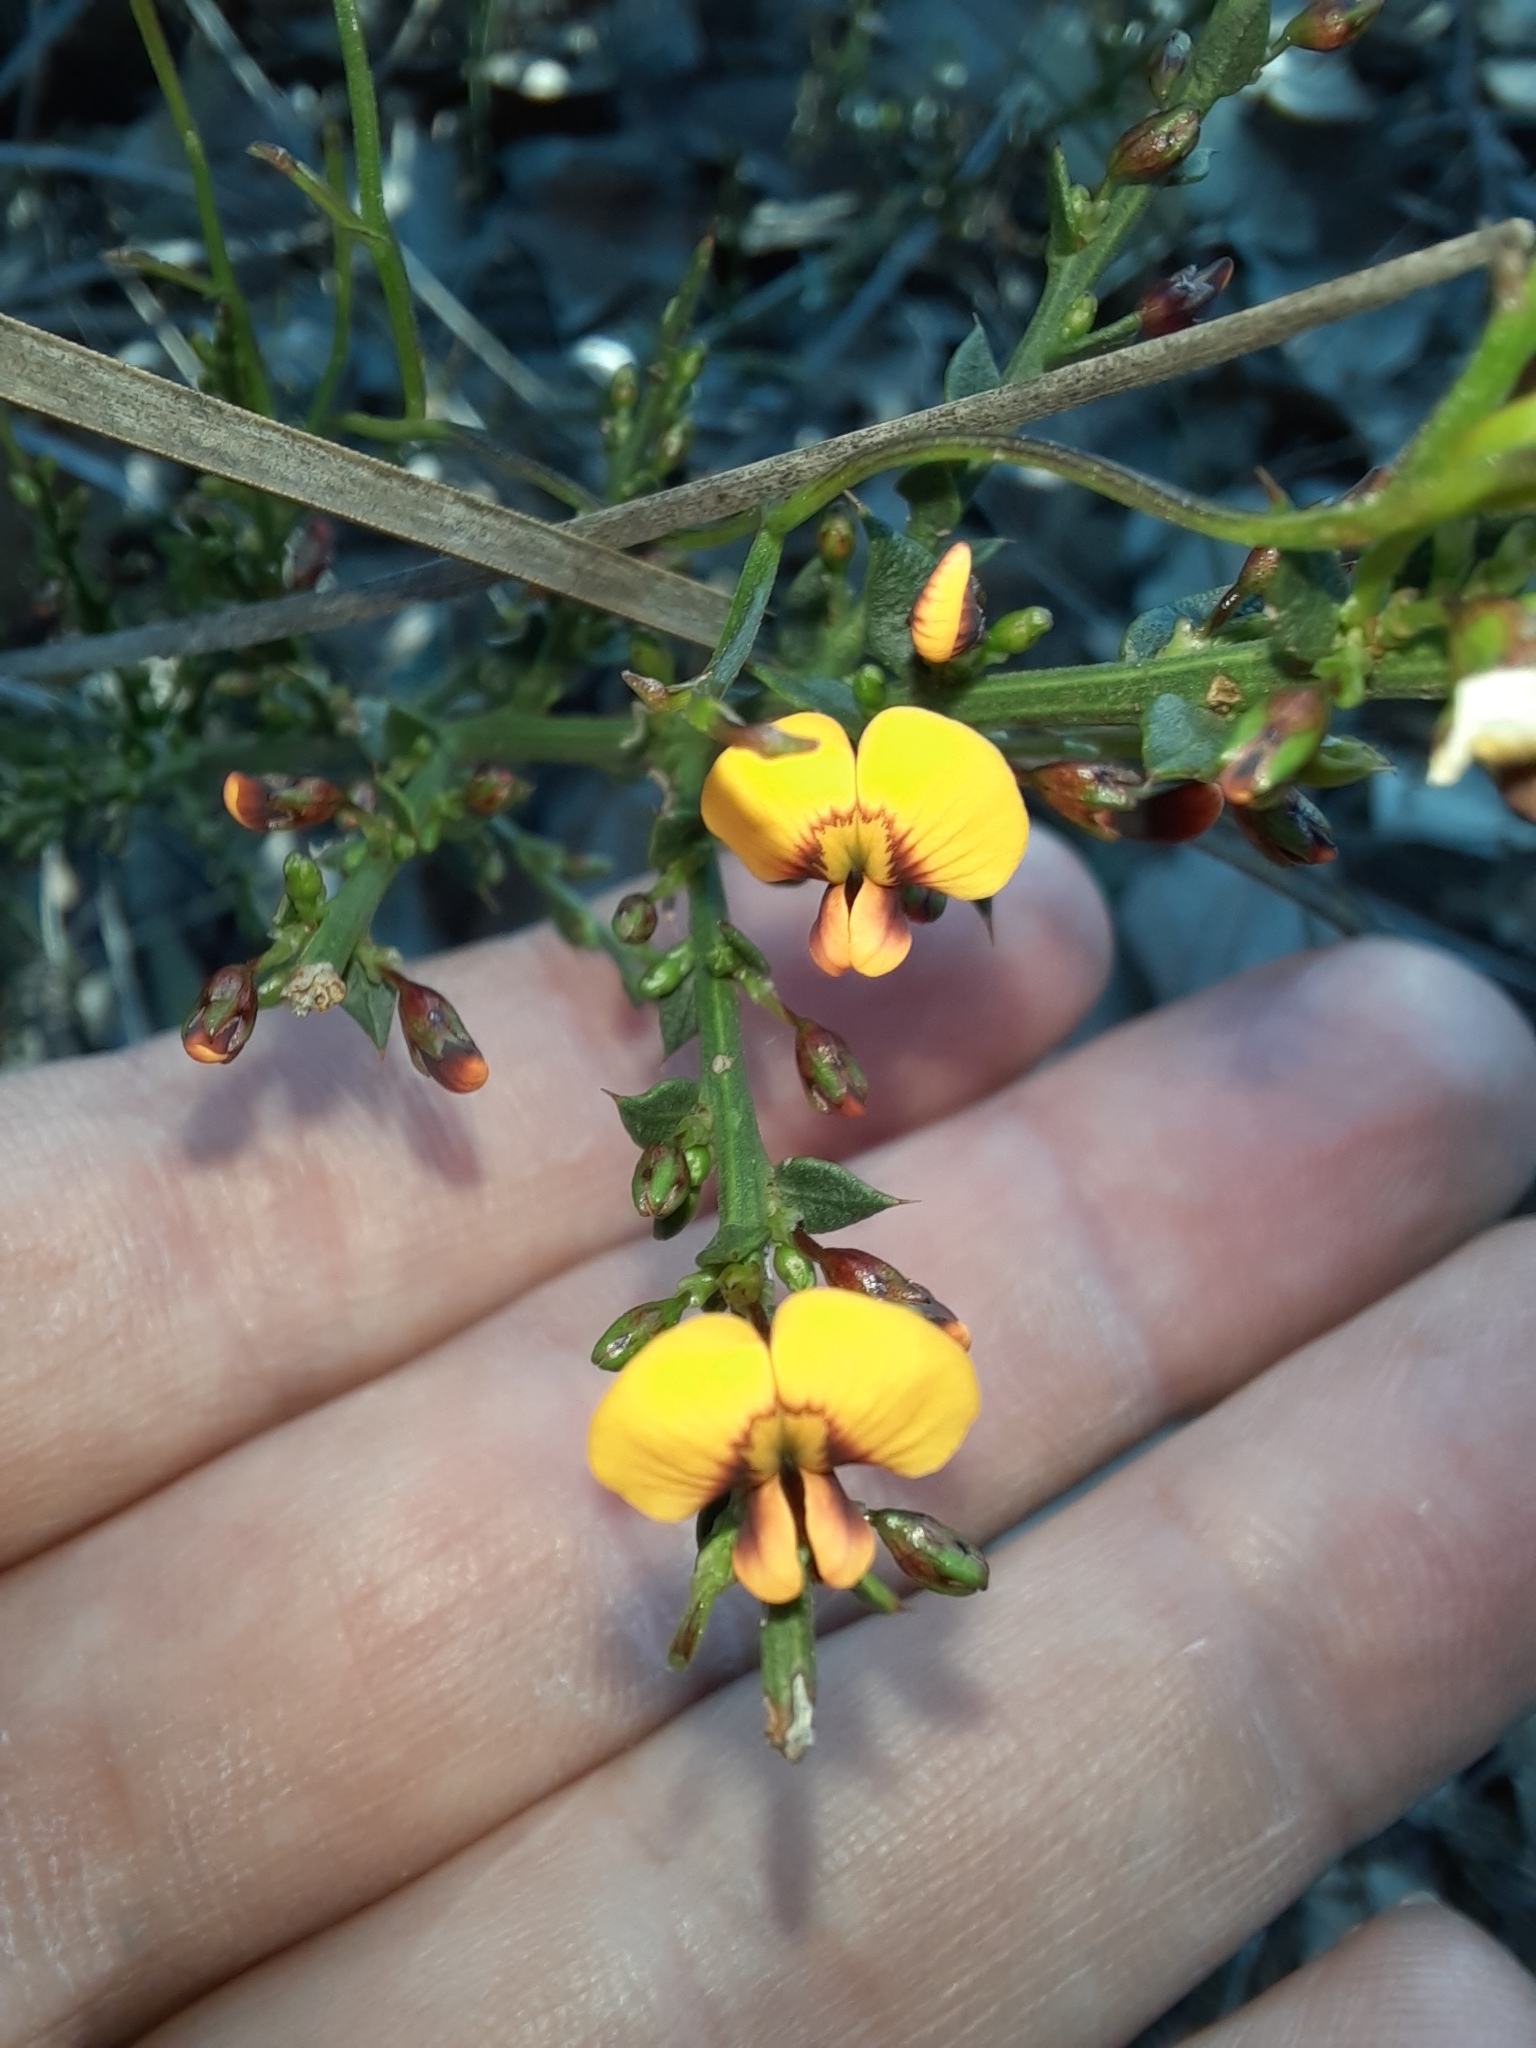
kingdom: Plantae
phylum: Tracheophyta
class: Magnoliopsida
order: Fabales
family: Fabaceae
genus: Daviesia
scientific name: Daviesia ulicifolia
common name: Gorse bitter-pea
